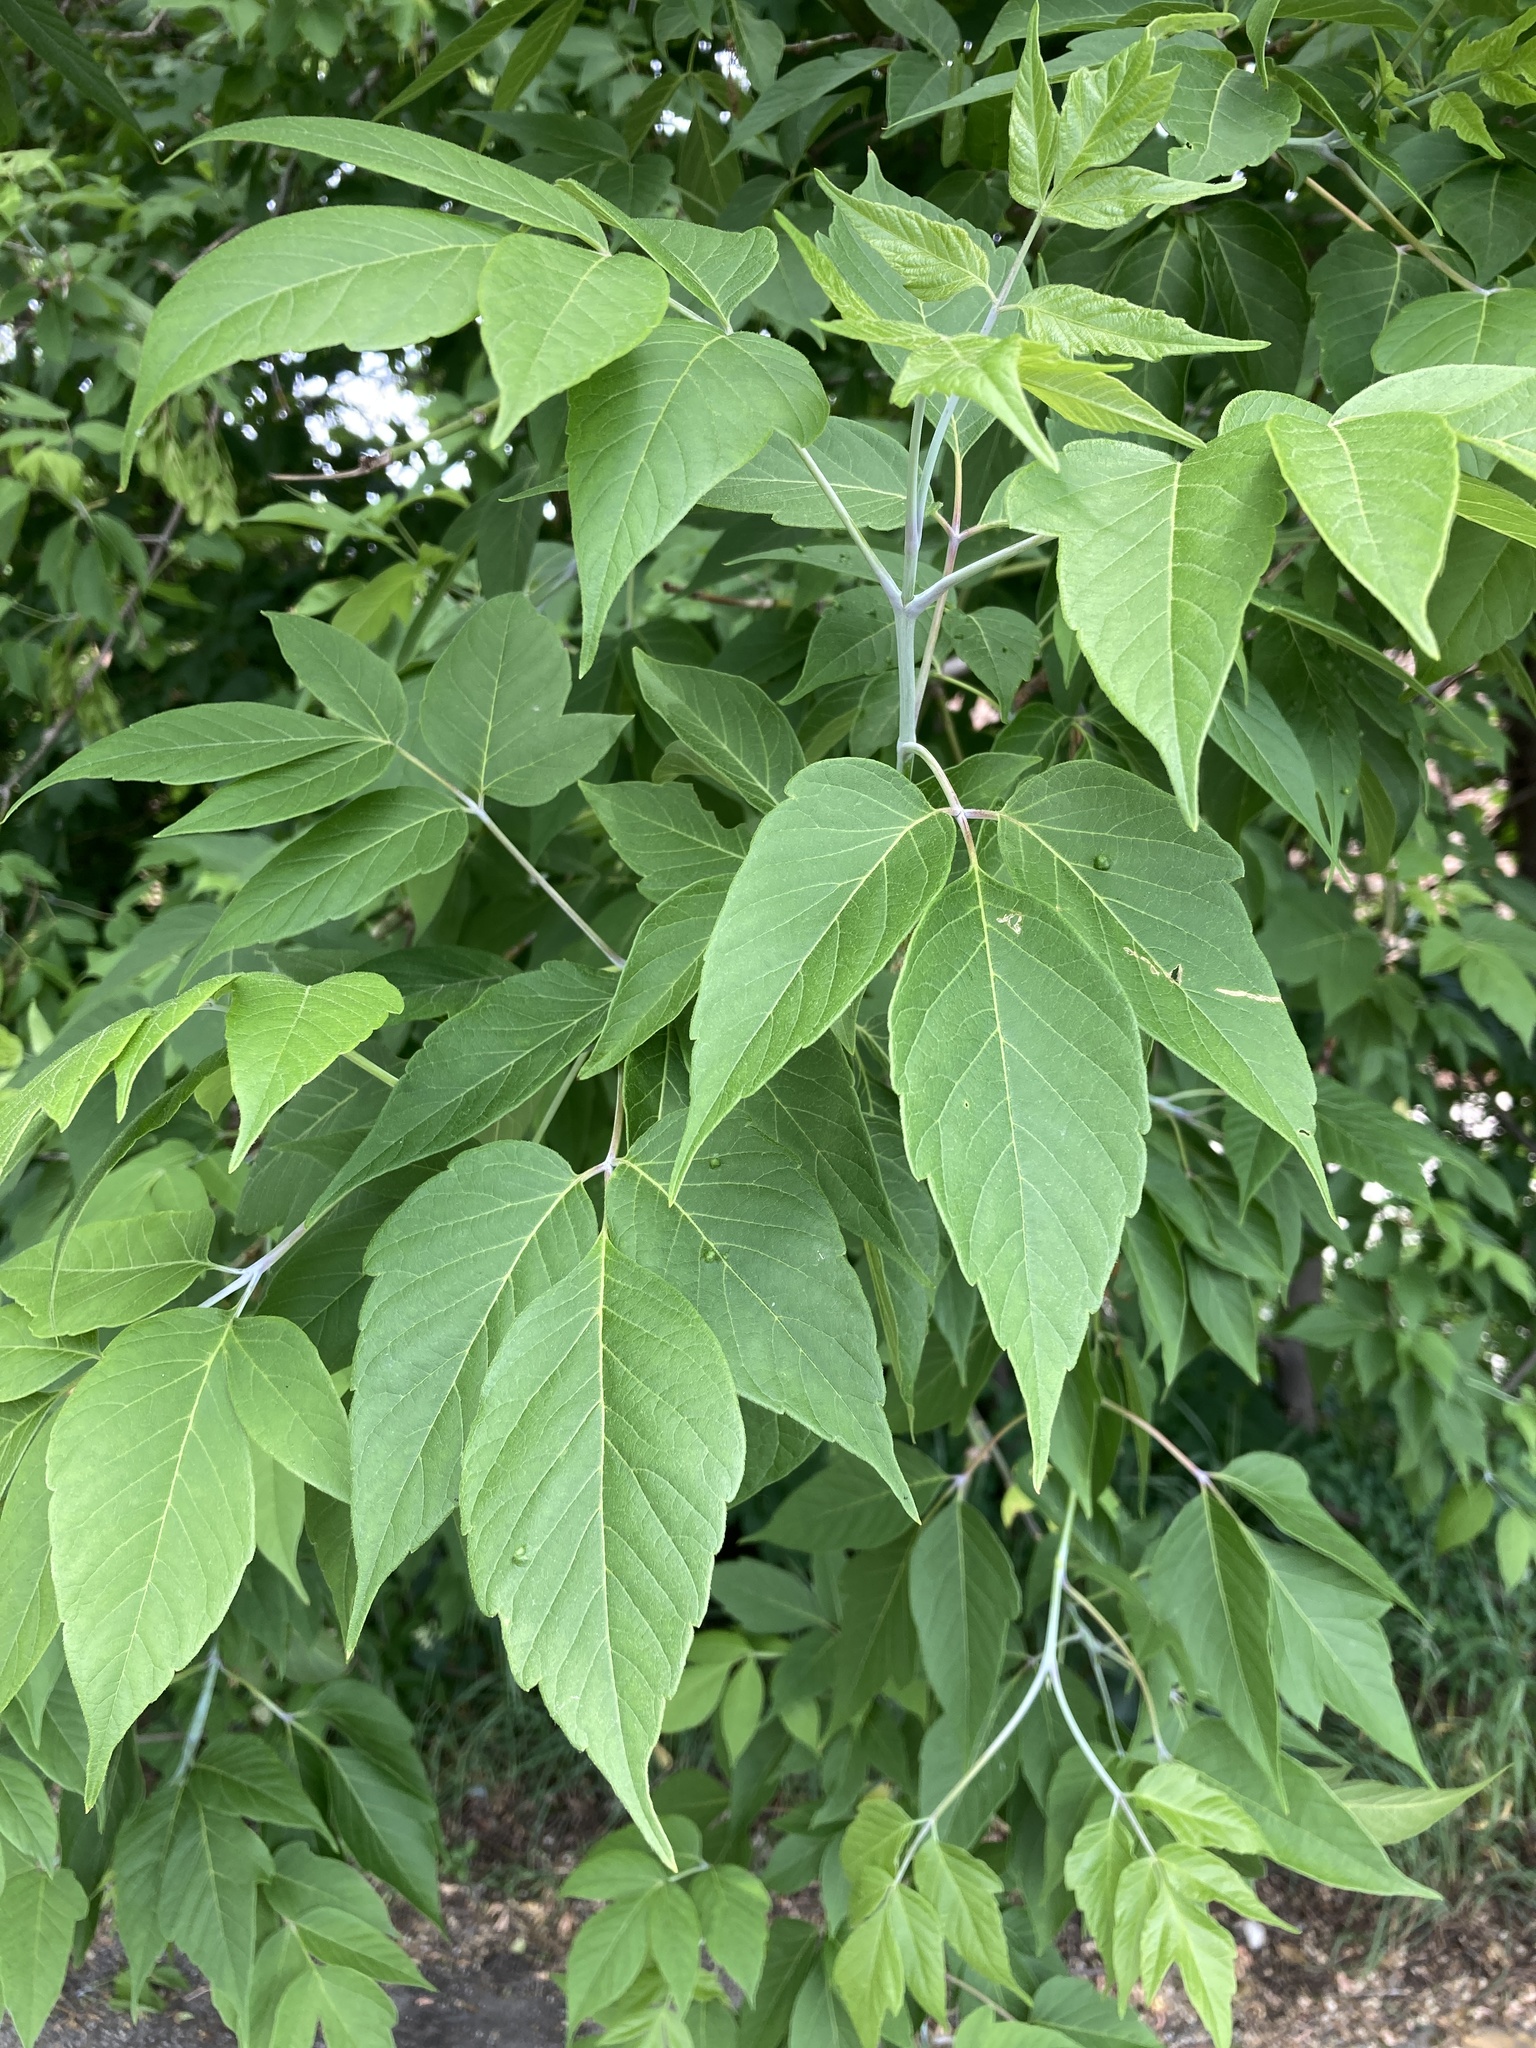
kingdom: Plantae
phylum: Tracheophyta
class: Magnoliopsida
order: Sapindales
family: Sapindaceae
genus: Acer
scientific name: Acer negundo
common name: Ashleaf maple
